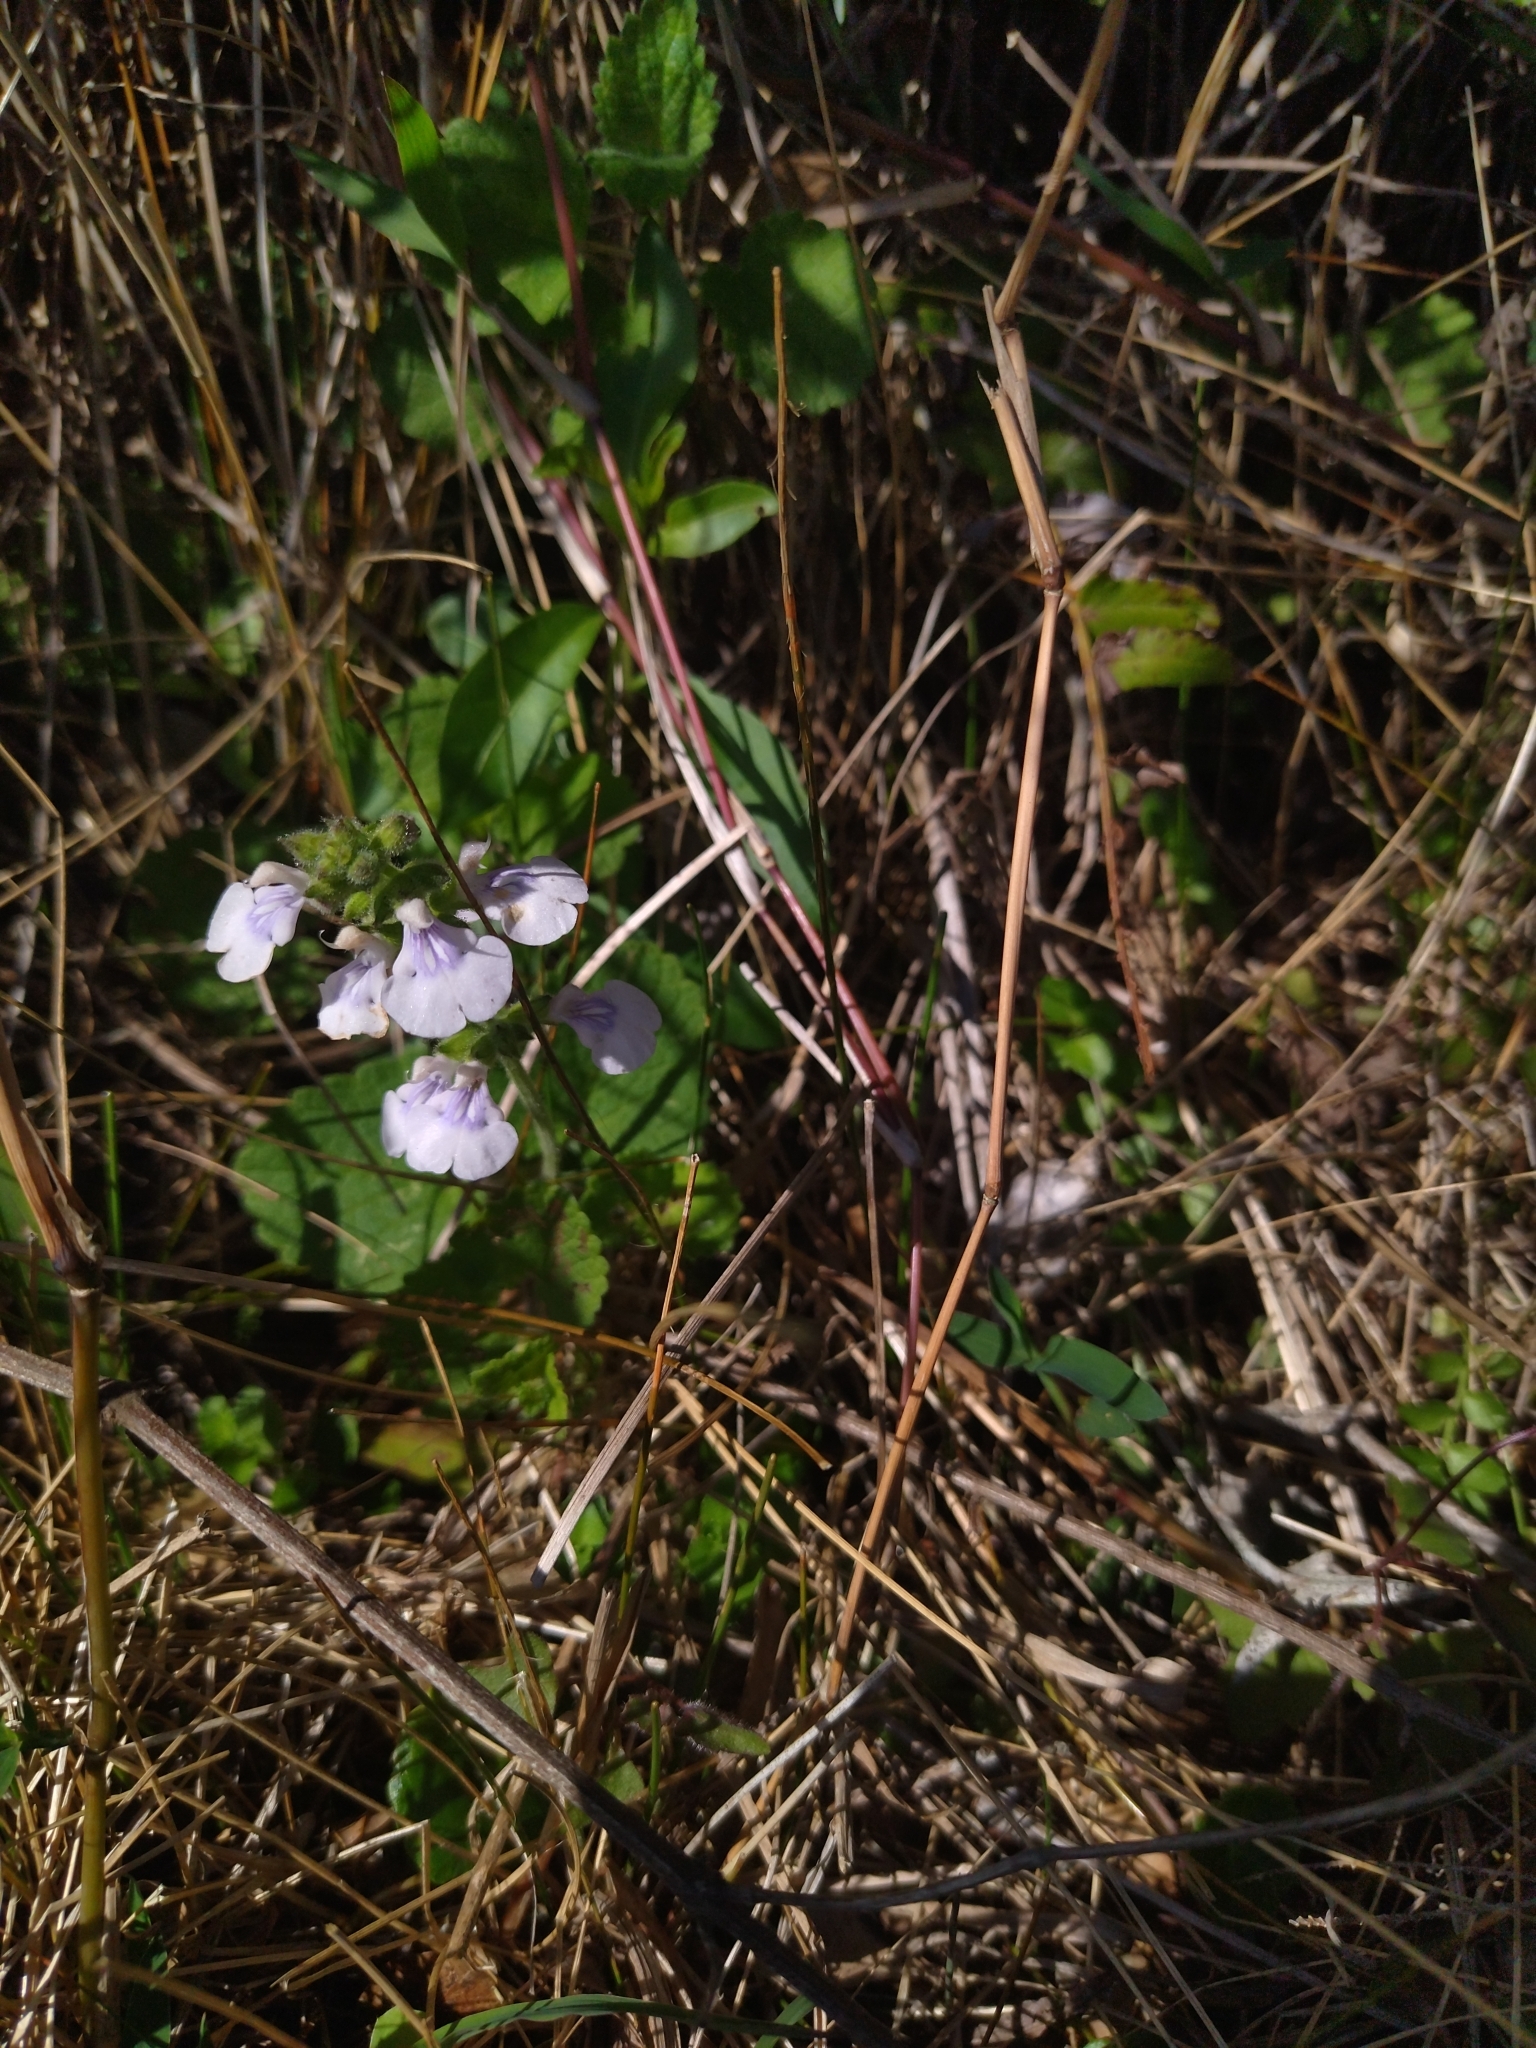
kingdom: Plantae
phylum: Tracheophyta
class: Magnoliopsida
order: Lamiales
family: Lamiaceae
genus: Salvia
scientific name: Salvia procurrens
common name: Blue creeper
